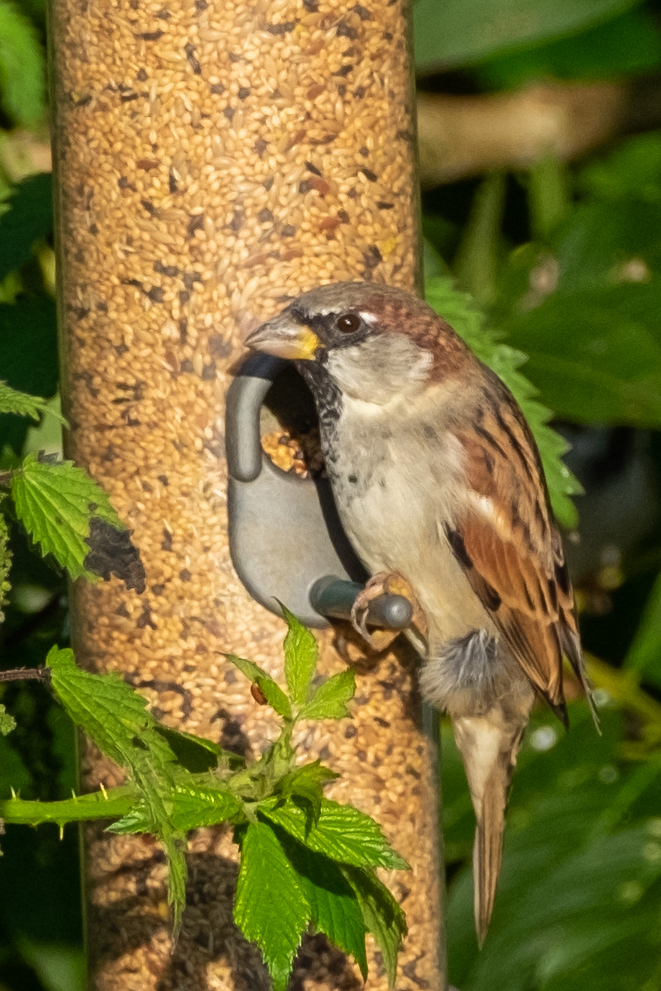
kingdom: Animalia
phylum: Chordata
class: Aves
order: Passeriformes
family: Passeridae
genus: Passer
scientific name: Passer domesticus
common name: House sparrow
